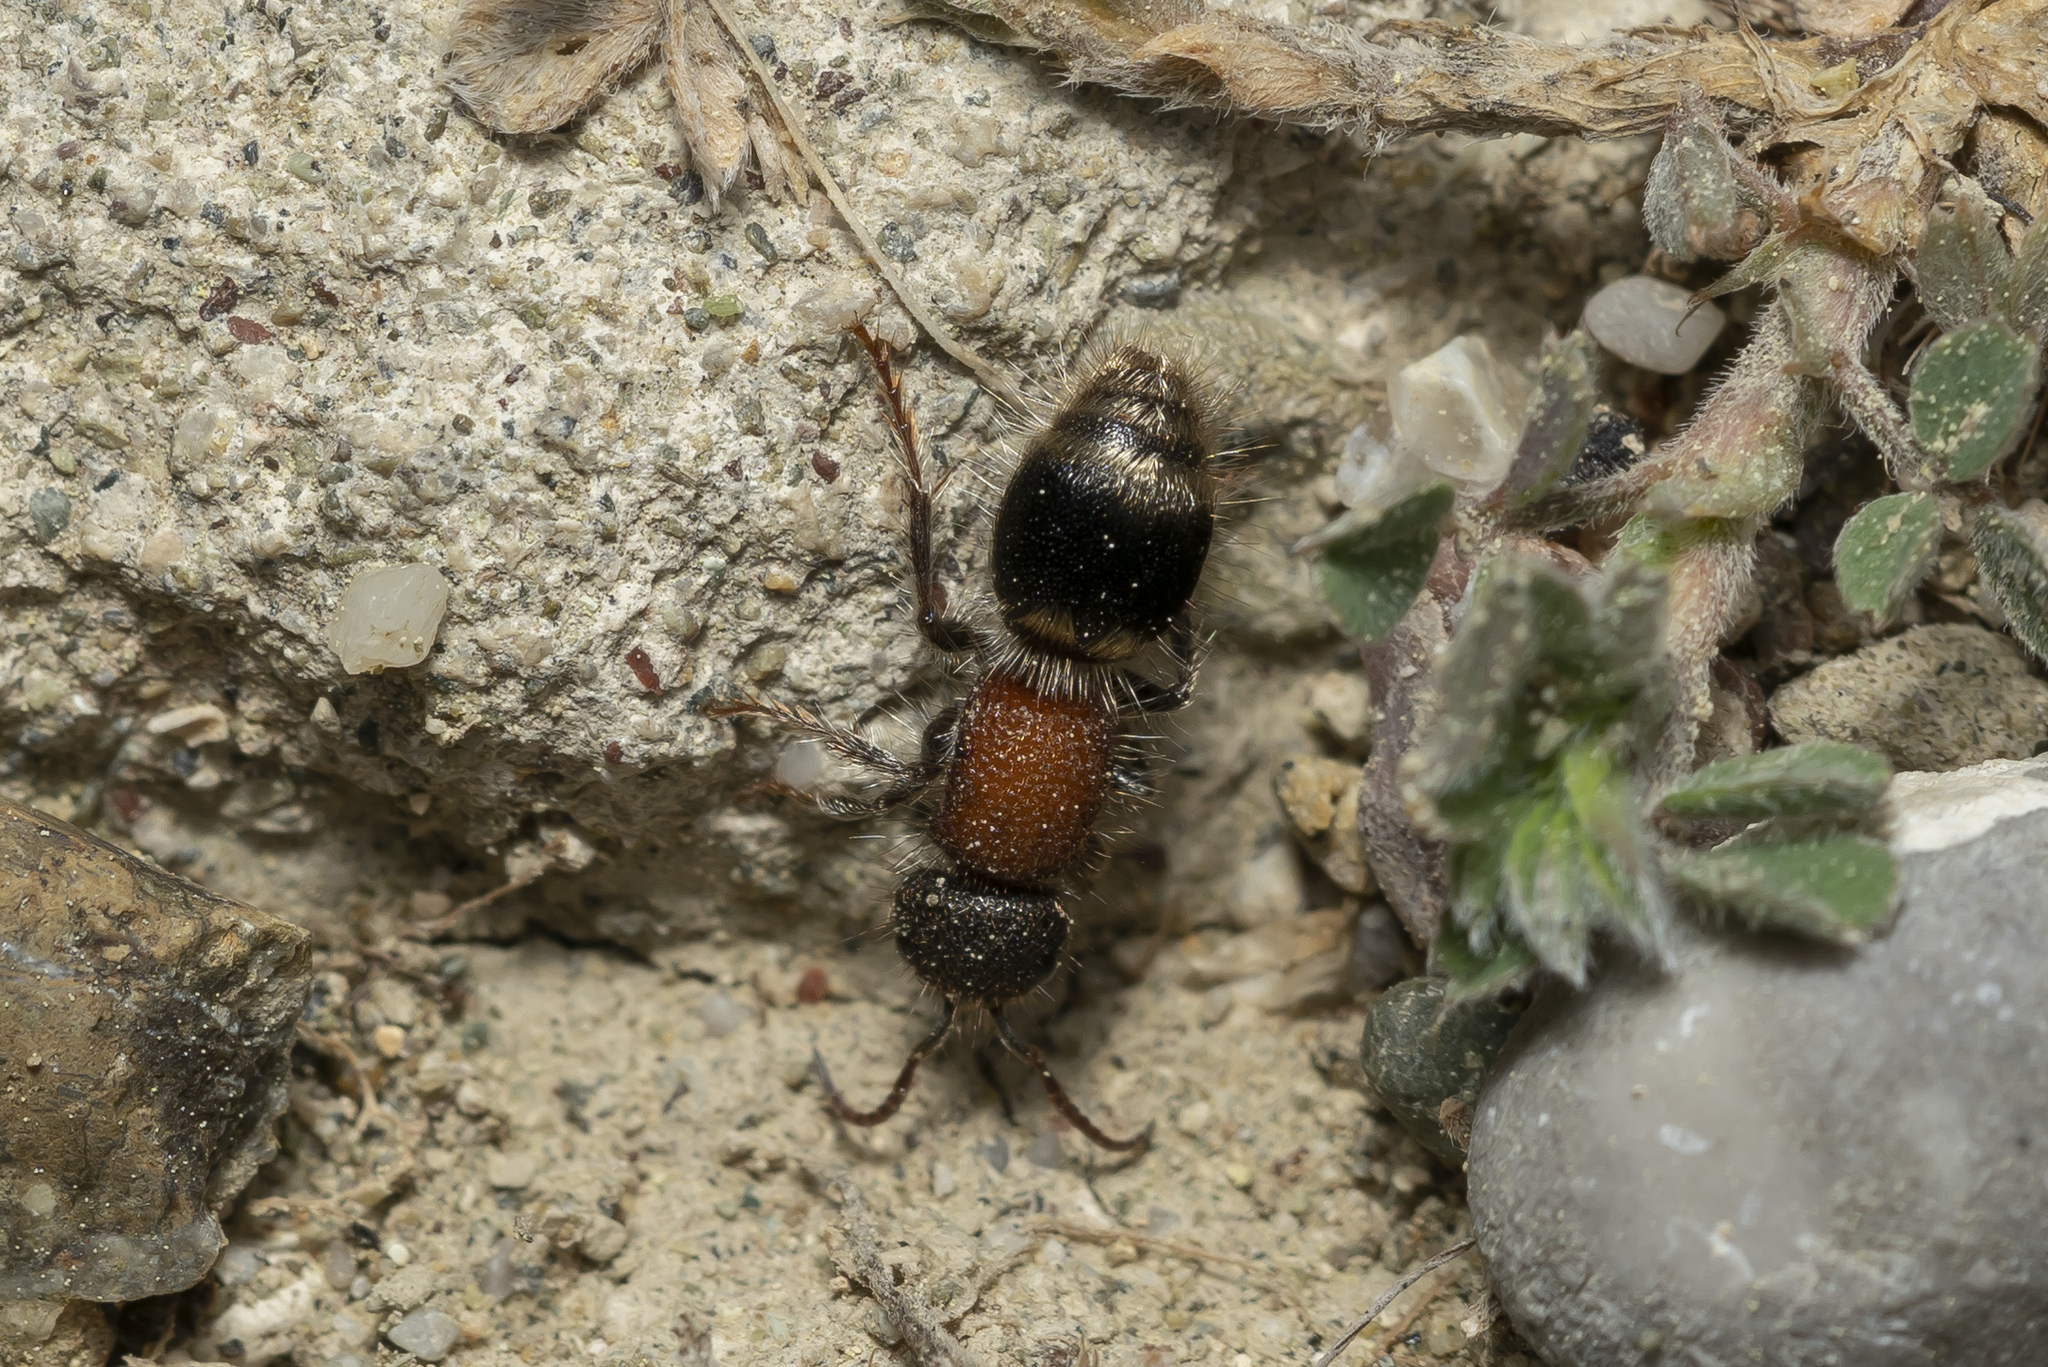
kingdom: Animalia
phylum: Arthropoda
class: Insecta
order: Hymenoptera
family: Mutillidae
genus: Tropidotilla
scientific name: Tropidotilla litoralis
